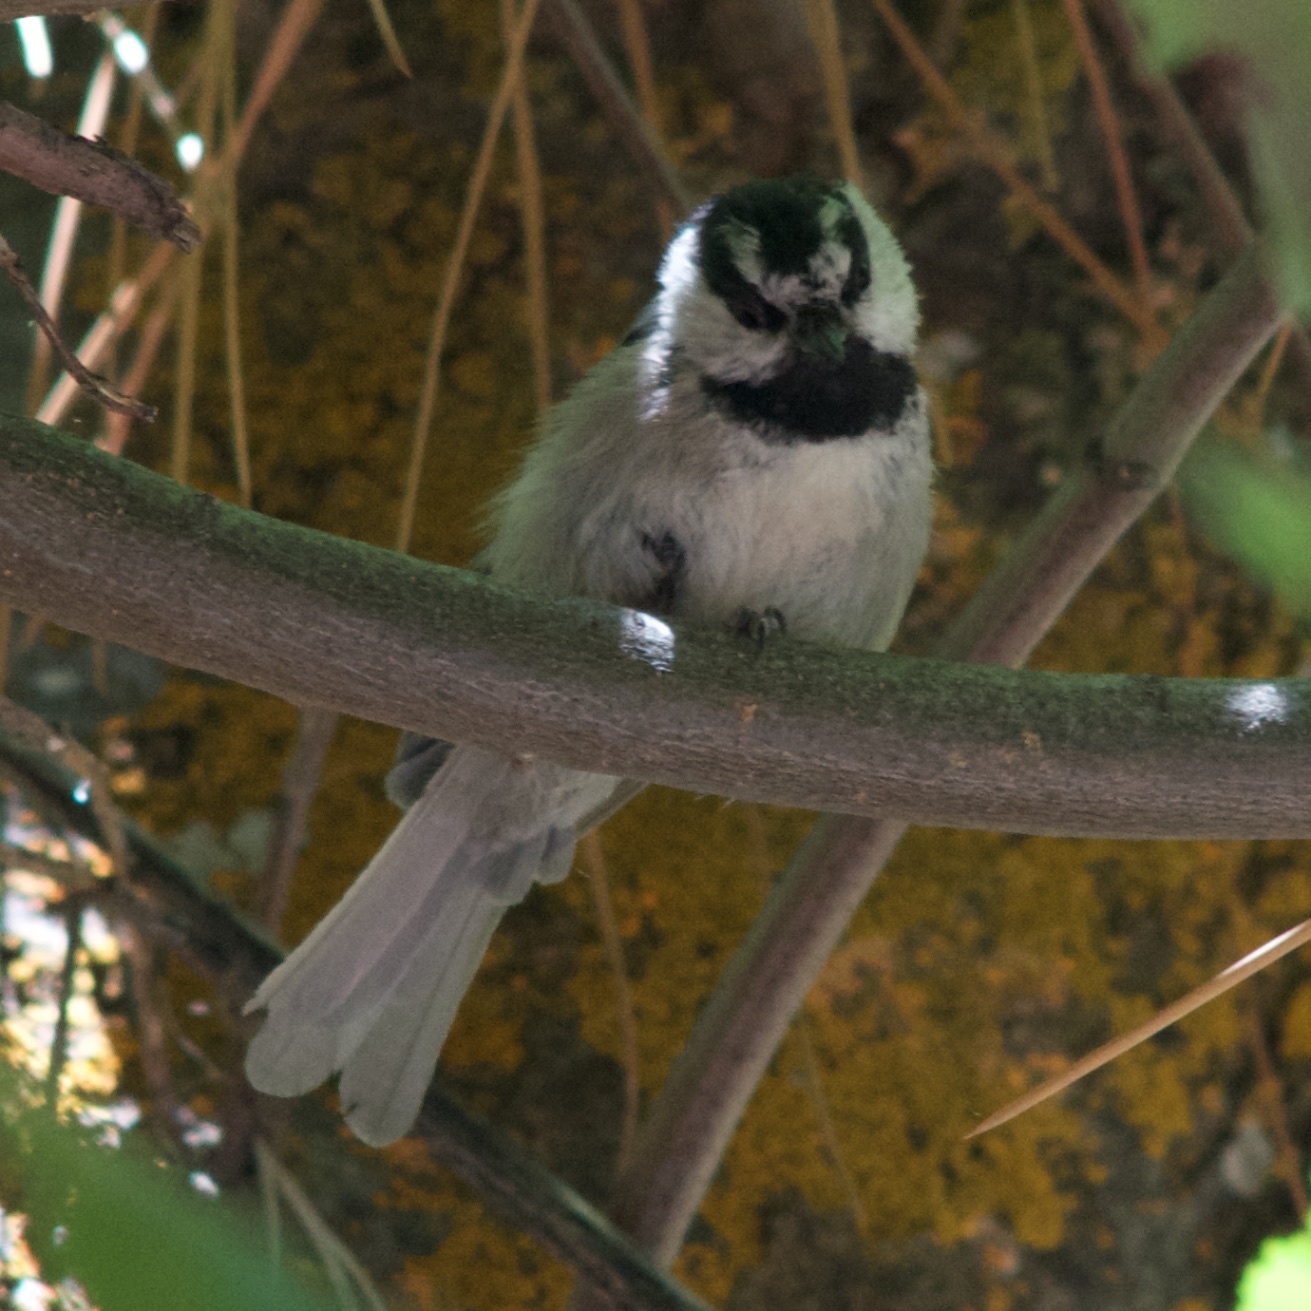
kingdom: Animalia
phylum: Chordata
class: Aves
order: Passeriformes
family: Paridae
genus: Poecile
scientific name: Poecile gambeli
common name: Mountain chickadee
